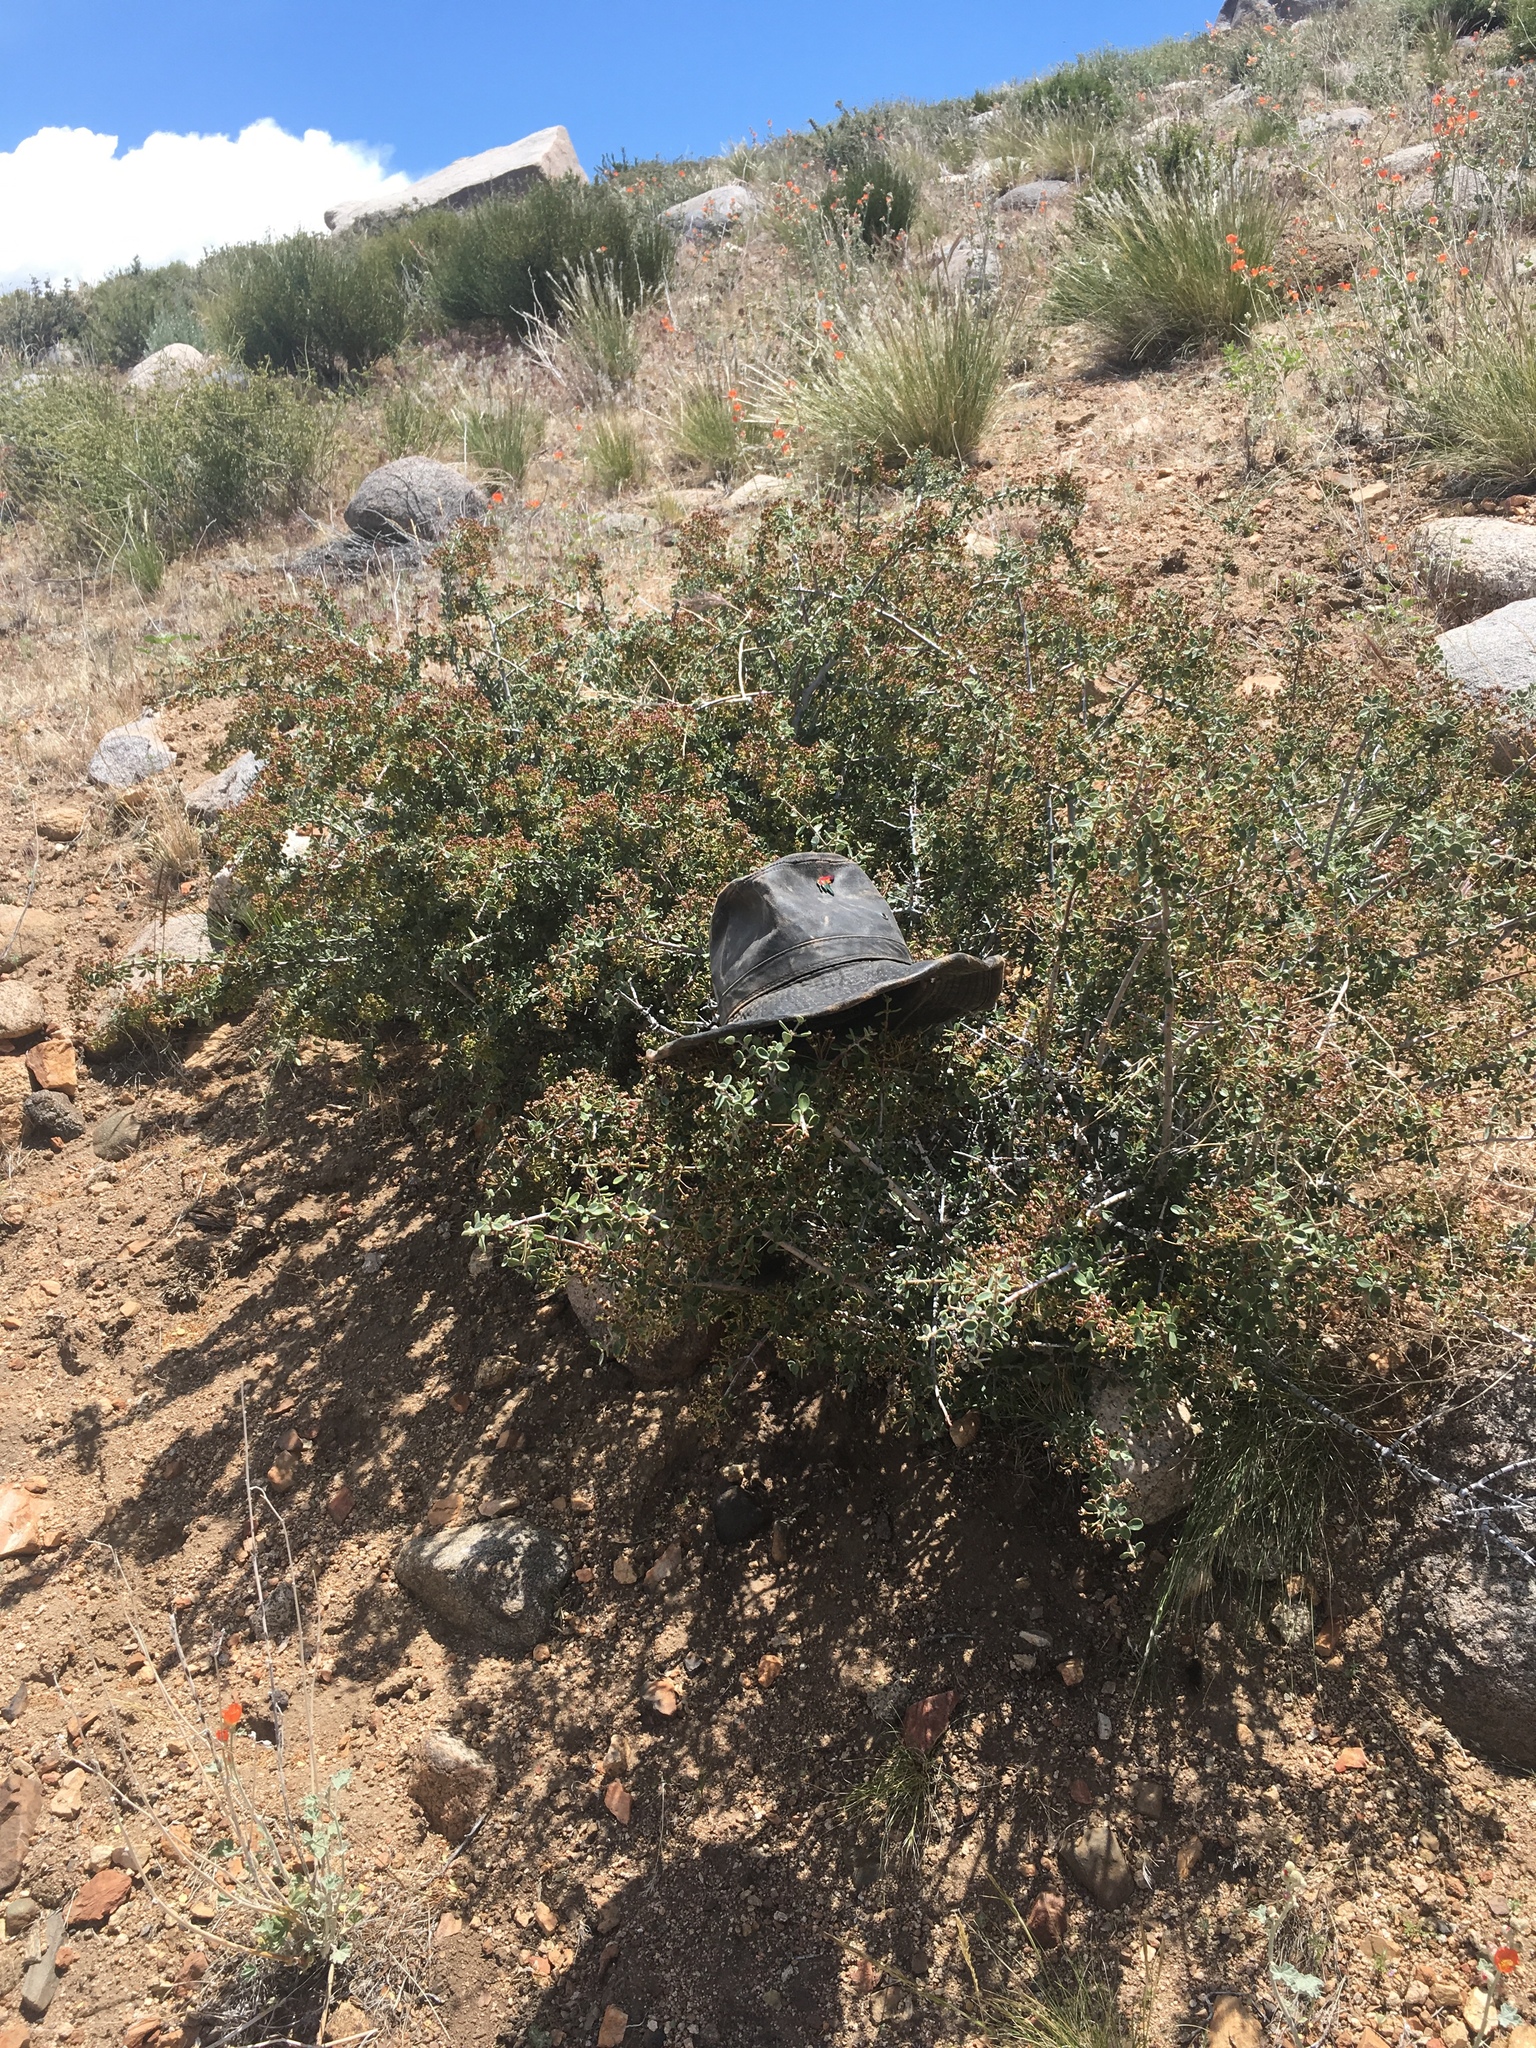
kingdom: Plantae
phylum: Tracheophyta
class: Magnoliopsida
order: Rosales
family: Rhamnaceae
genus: Ceanothus
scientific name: Ceanothus pauciflorus
